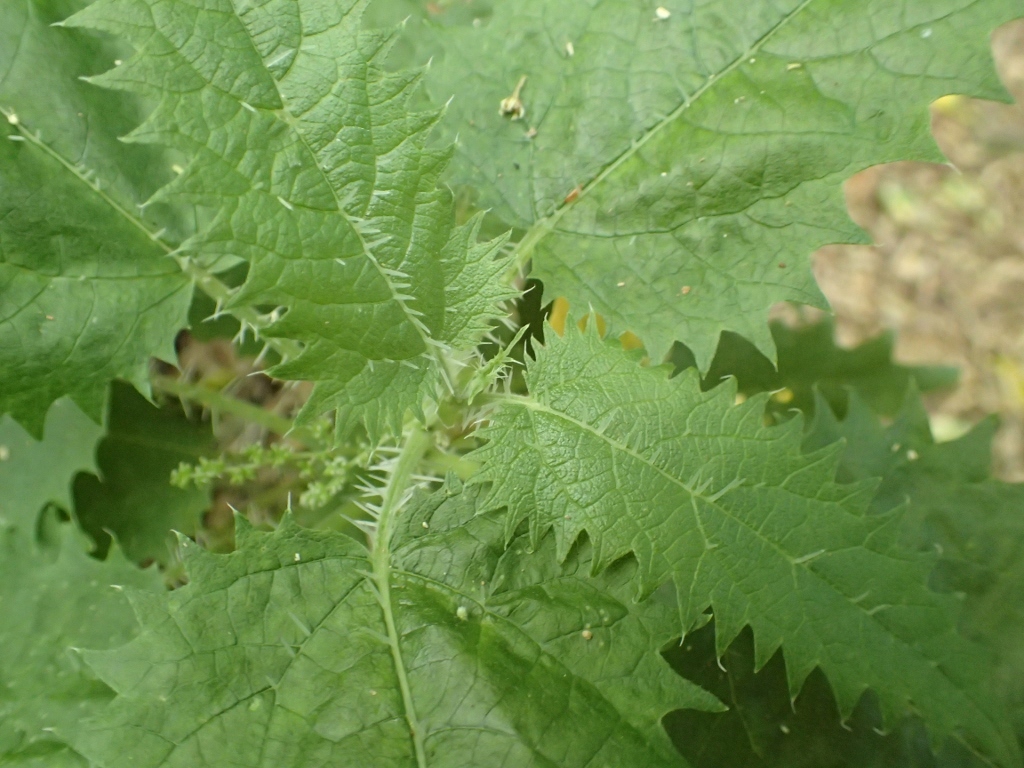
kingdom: Plantae
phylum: Tracheophyta
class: Magnoliopsida
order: Rosales
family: Urticaceae
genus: Urtica
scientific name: Urtica ferox
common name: Tree nettle
